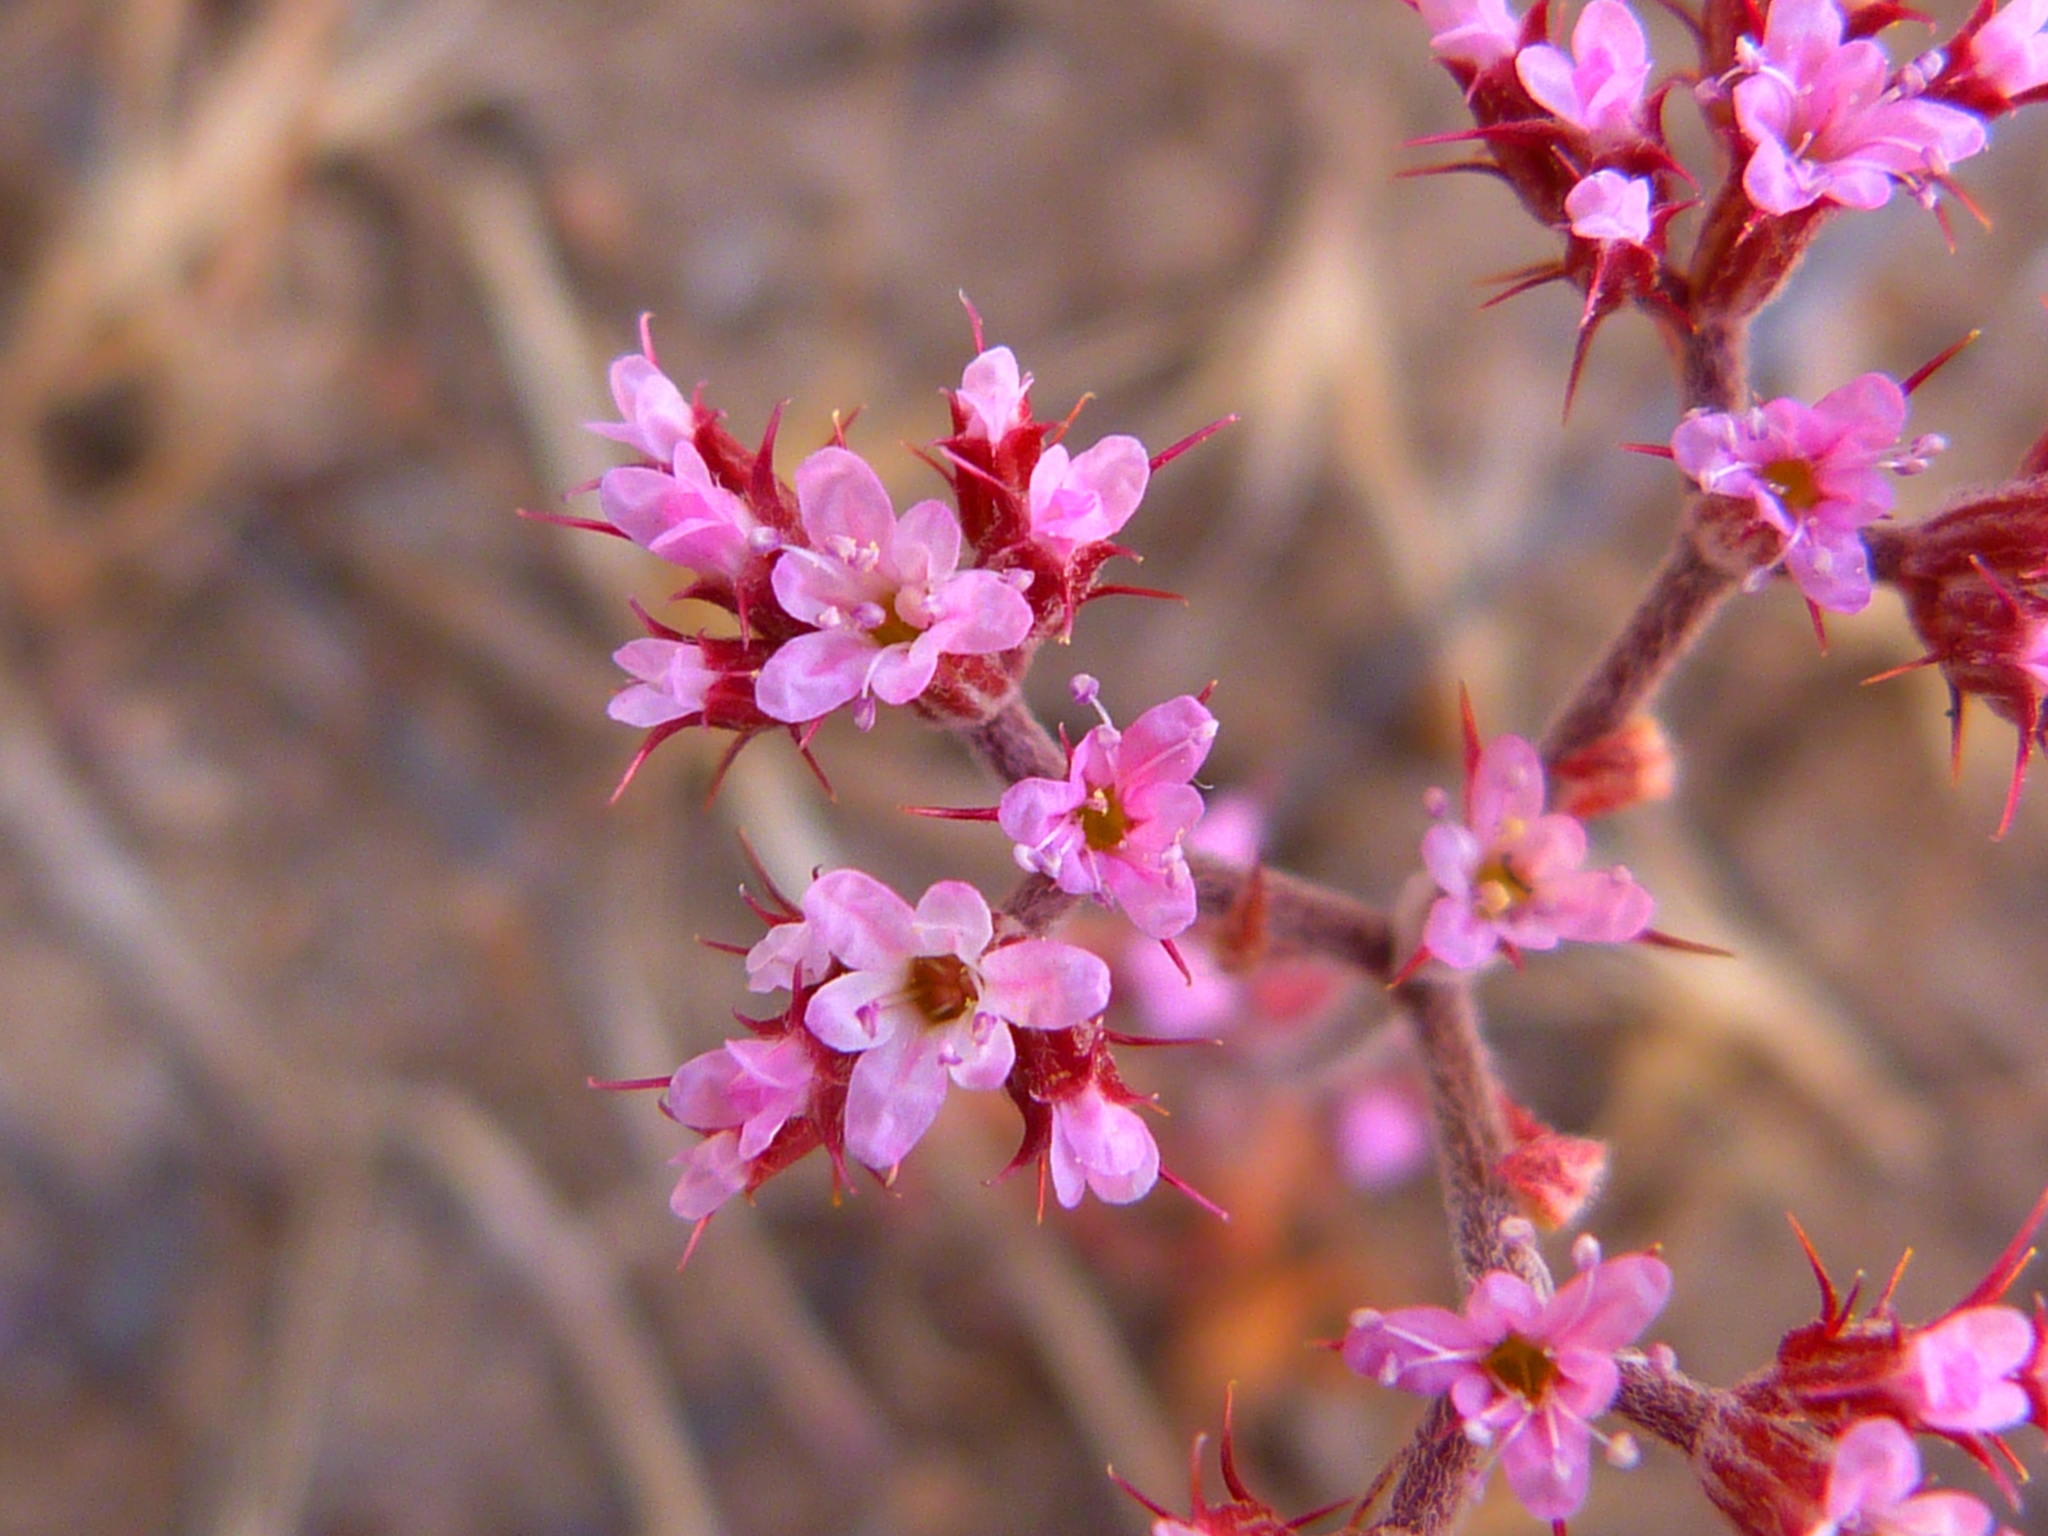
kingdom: Plantae
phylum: Tracheophyta
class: Magnoliopsida
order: Caryophyllales
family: Polygonaceae
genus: Chorizanthe
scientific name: Chorizanthe staticoides
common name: Turkish rugging
